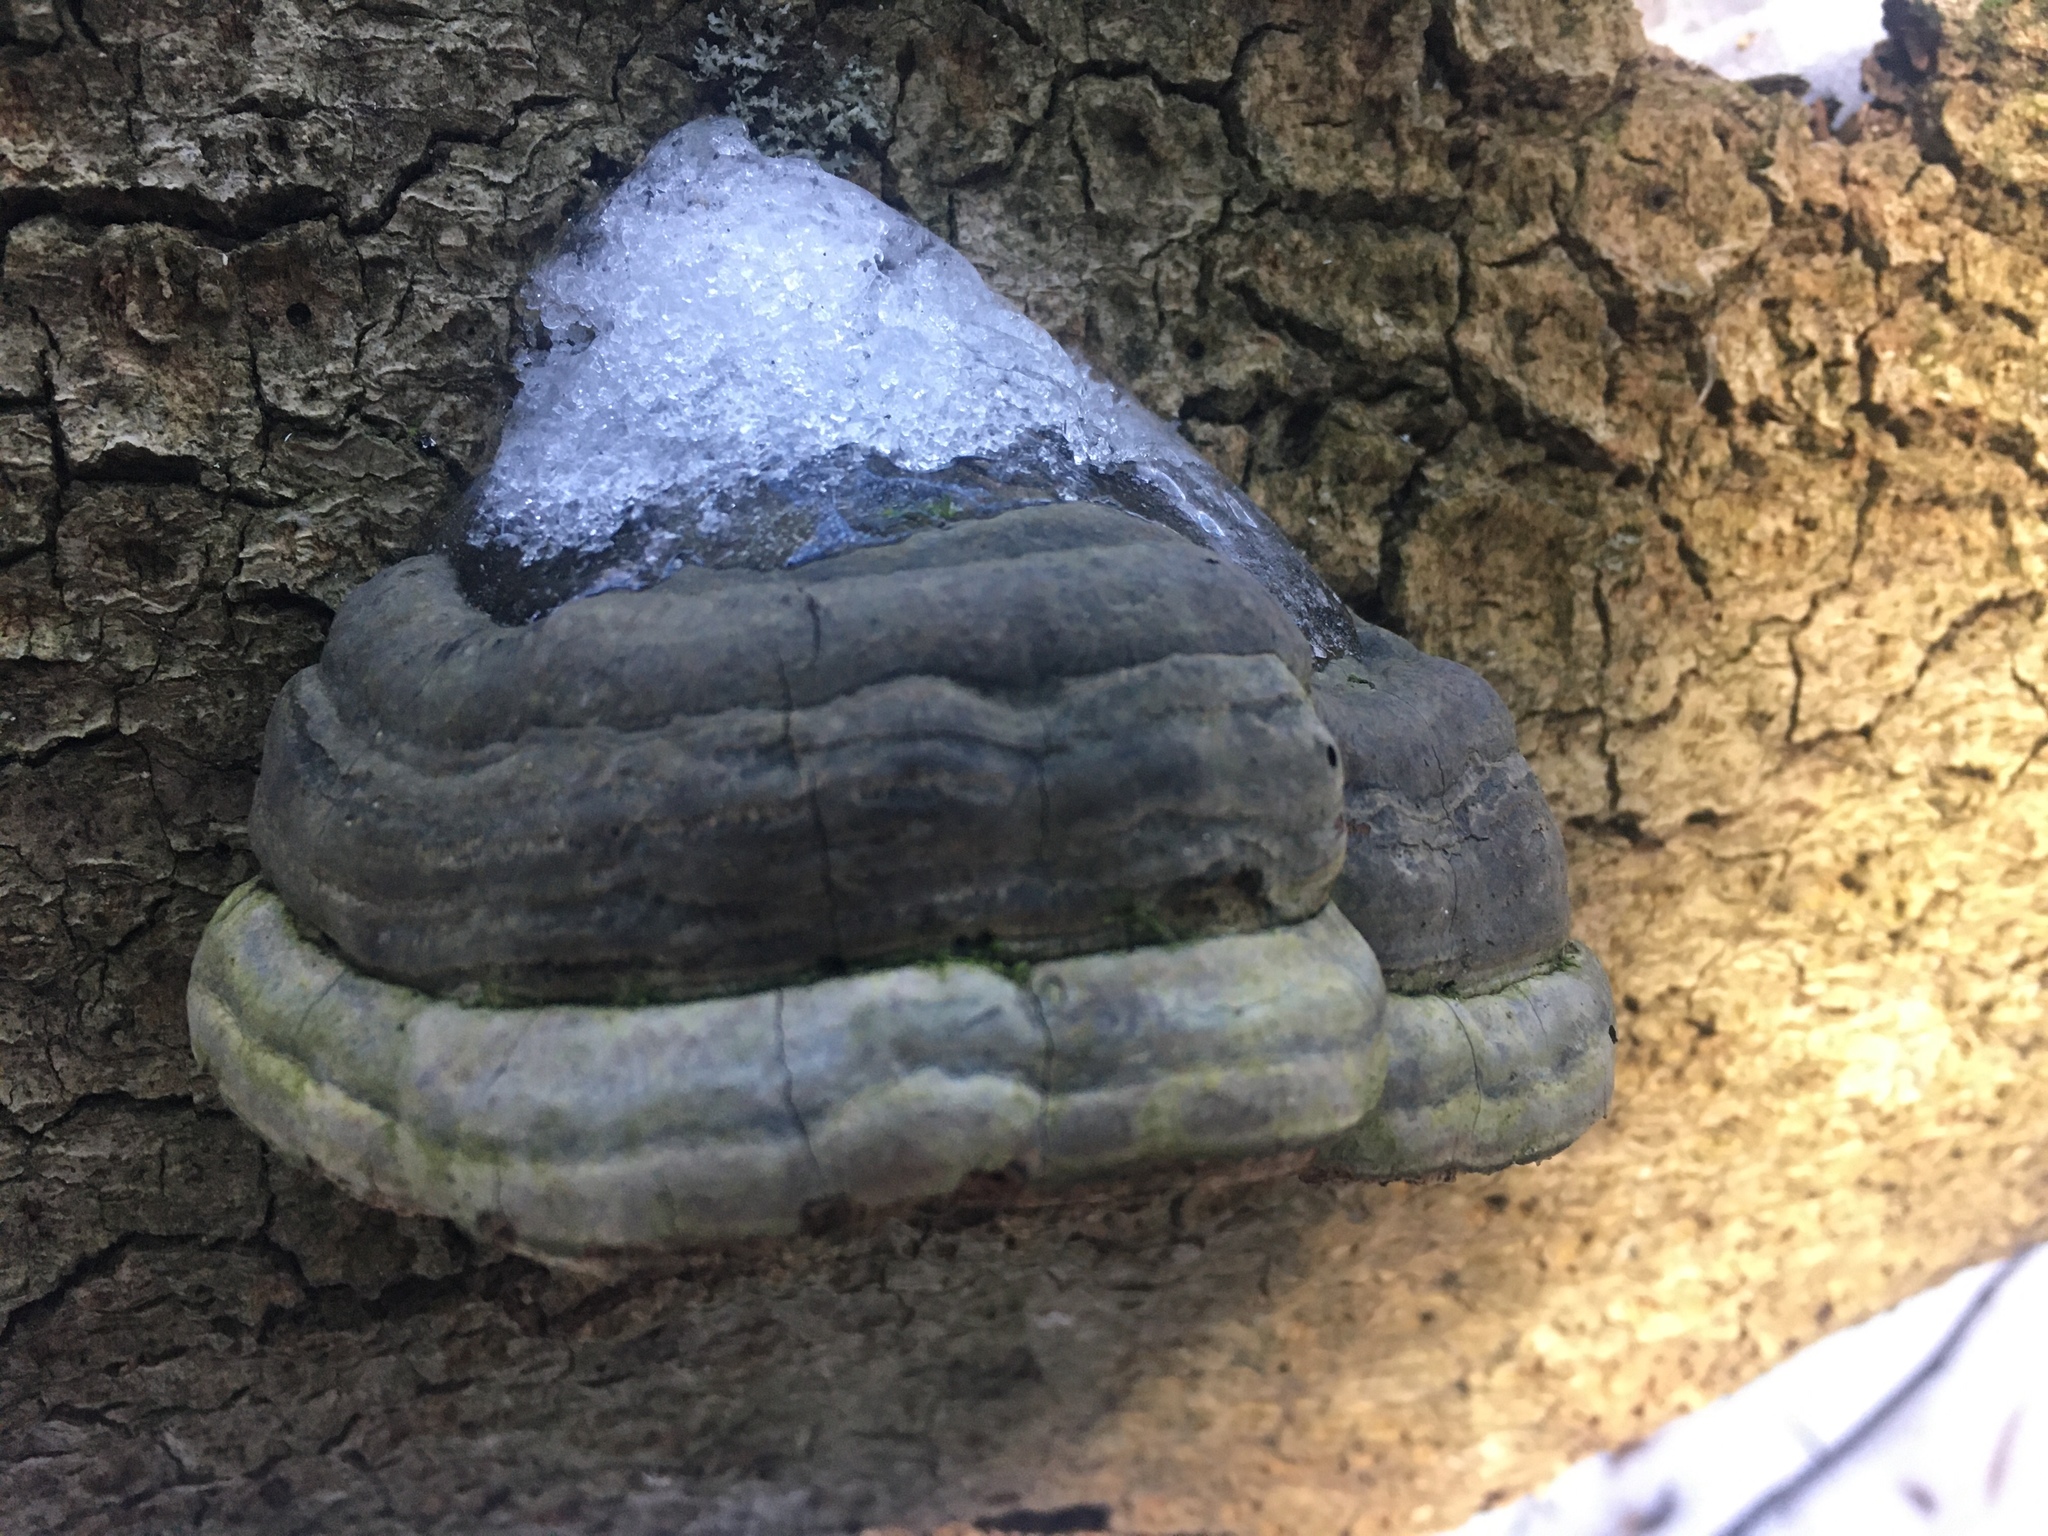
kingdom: Fungi
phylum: Basidiomycota
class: Agaricomycetes
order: Hymenochaetales
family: Hymenochaetaceae
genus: Phellinus
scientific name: Phellinus igniarius
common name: Willow bracket
